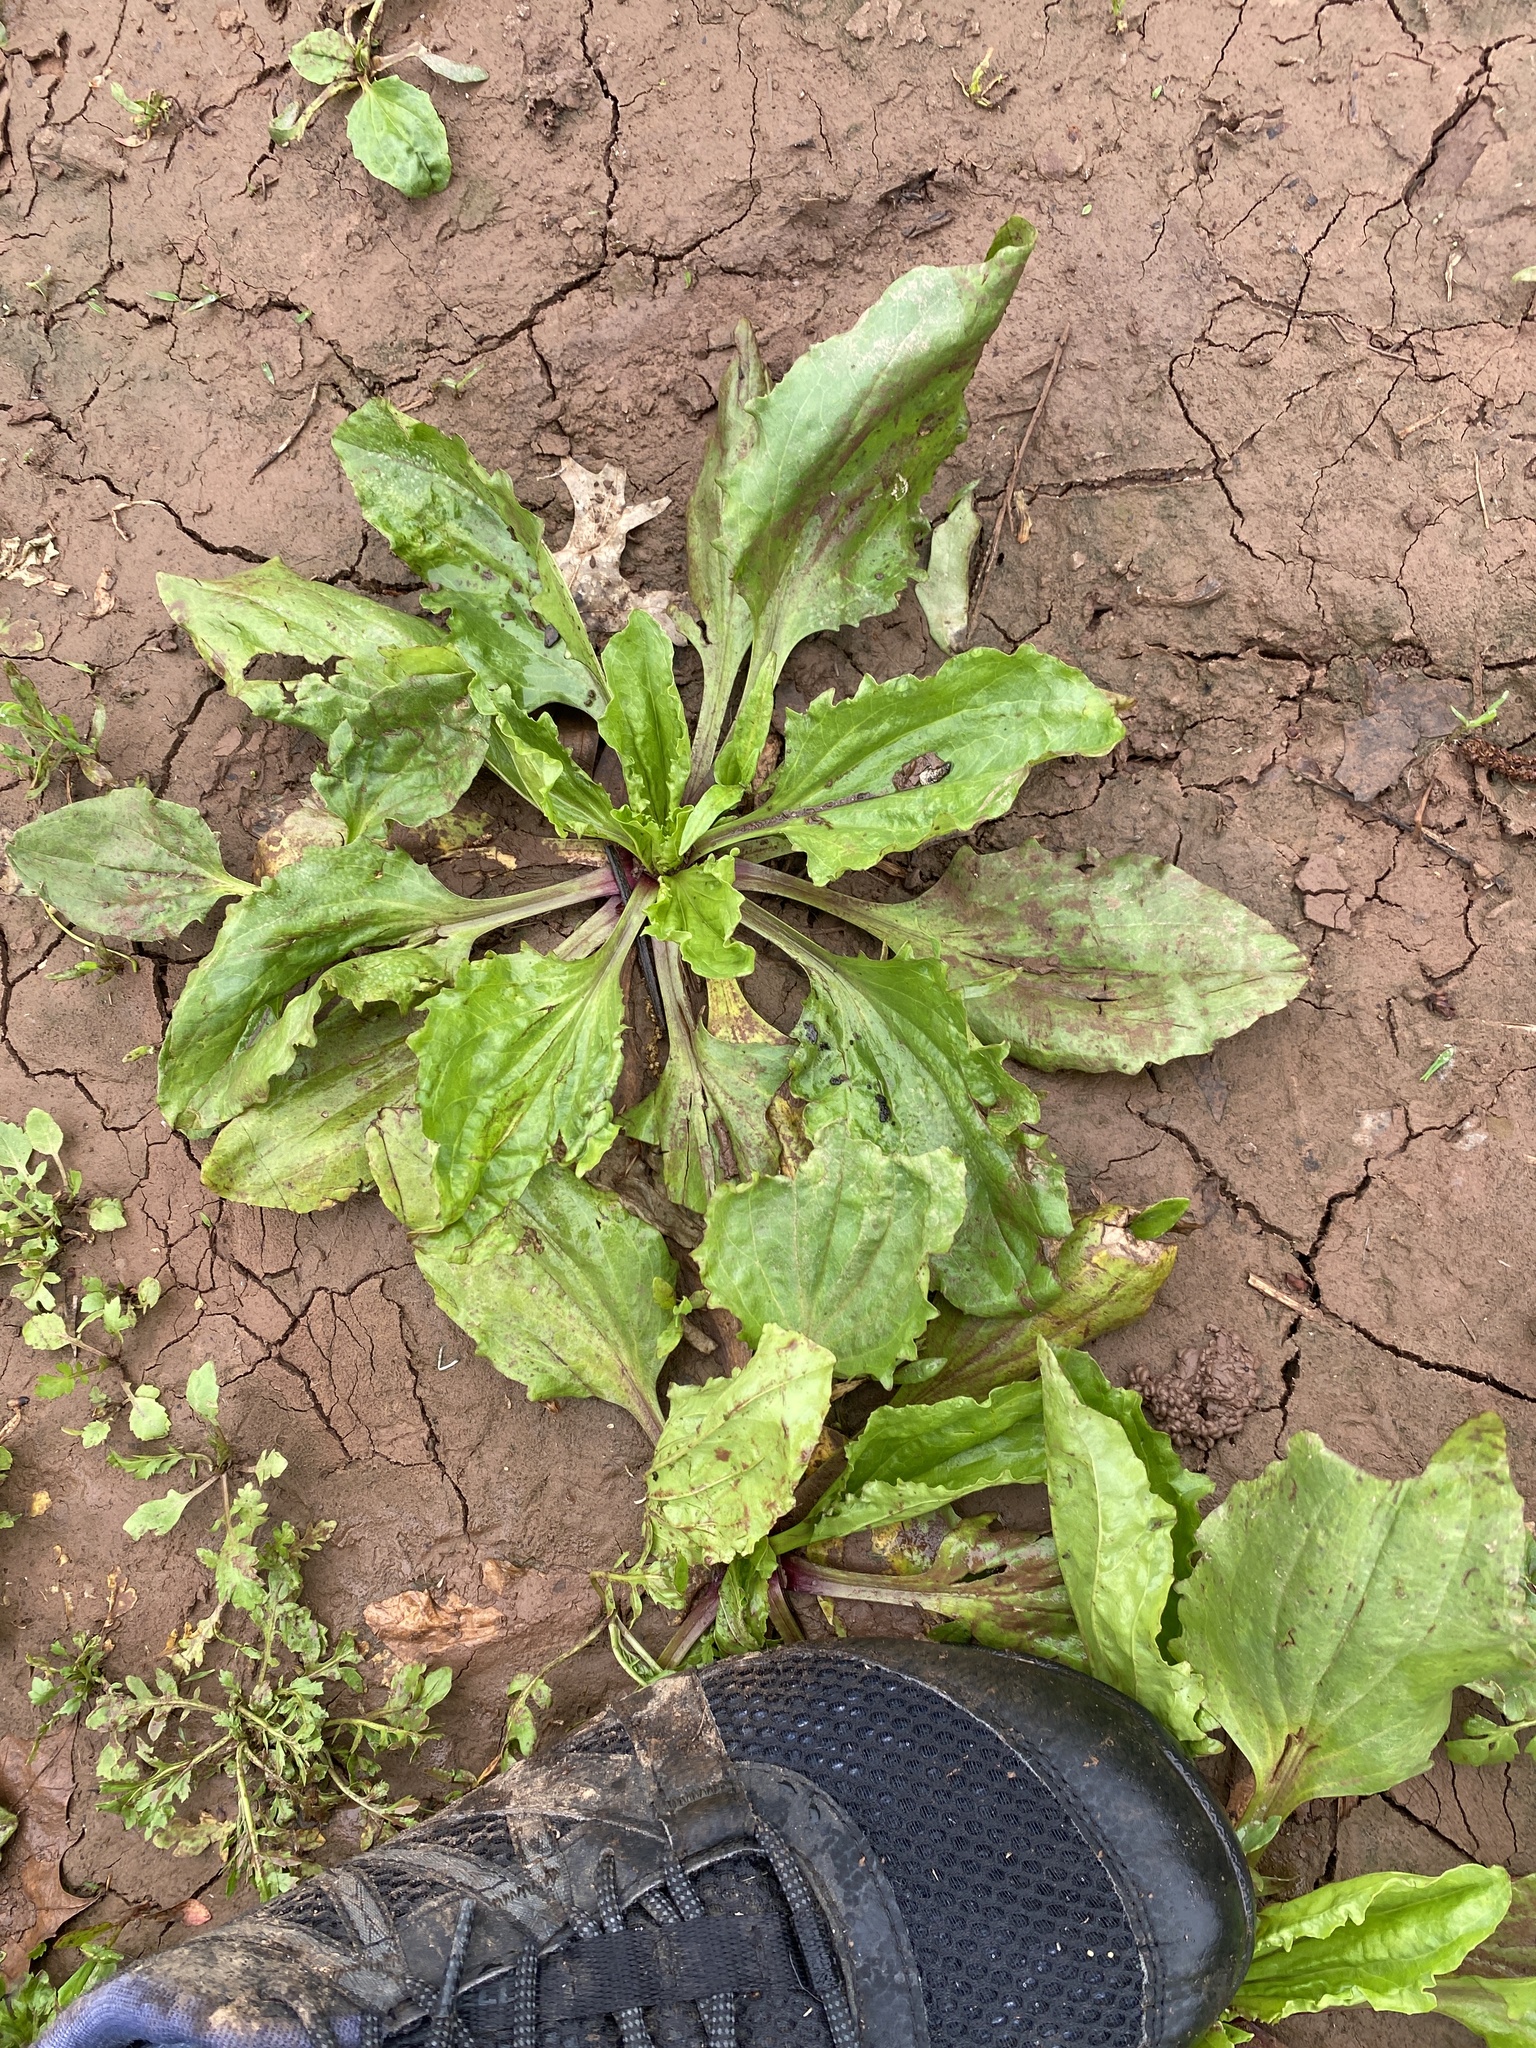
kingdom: Plantae
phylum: Tracheophyta
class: Magnoliopsida
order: Lamiales
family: Plantaginaceae
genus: Plantago
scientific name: Plantago rugelii
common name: American plantain
